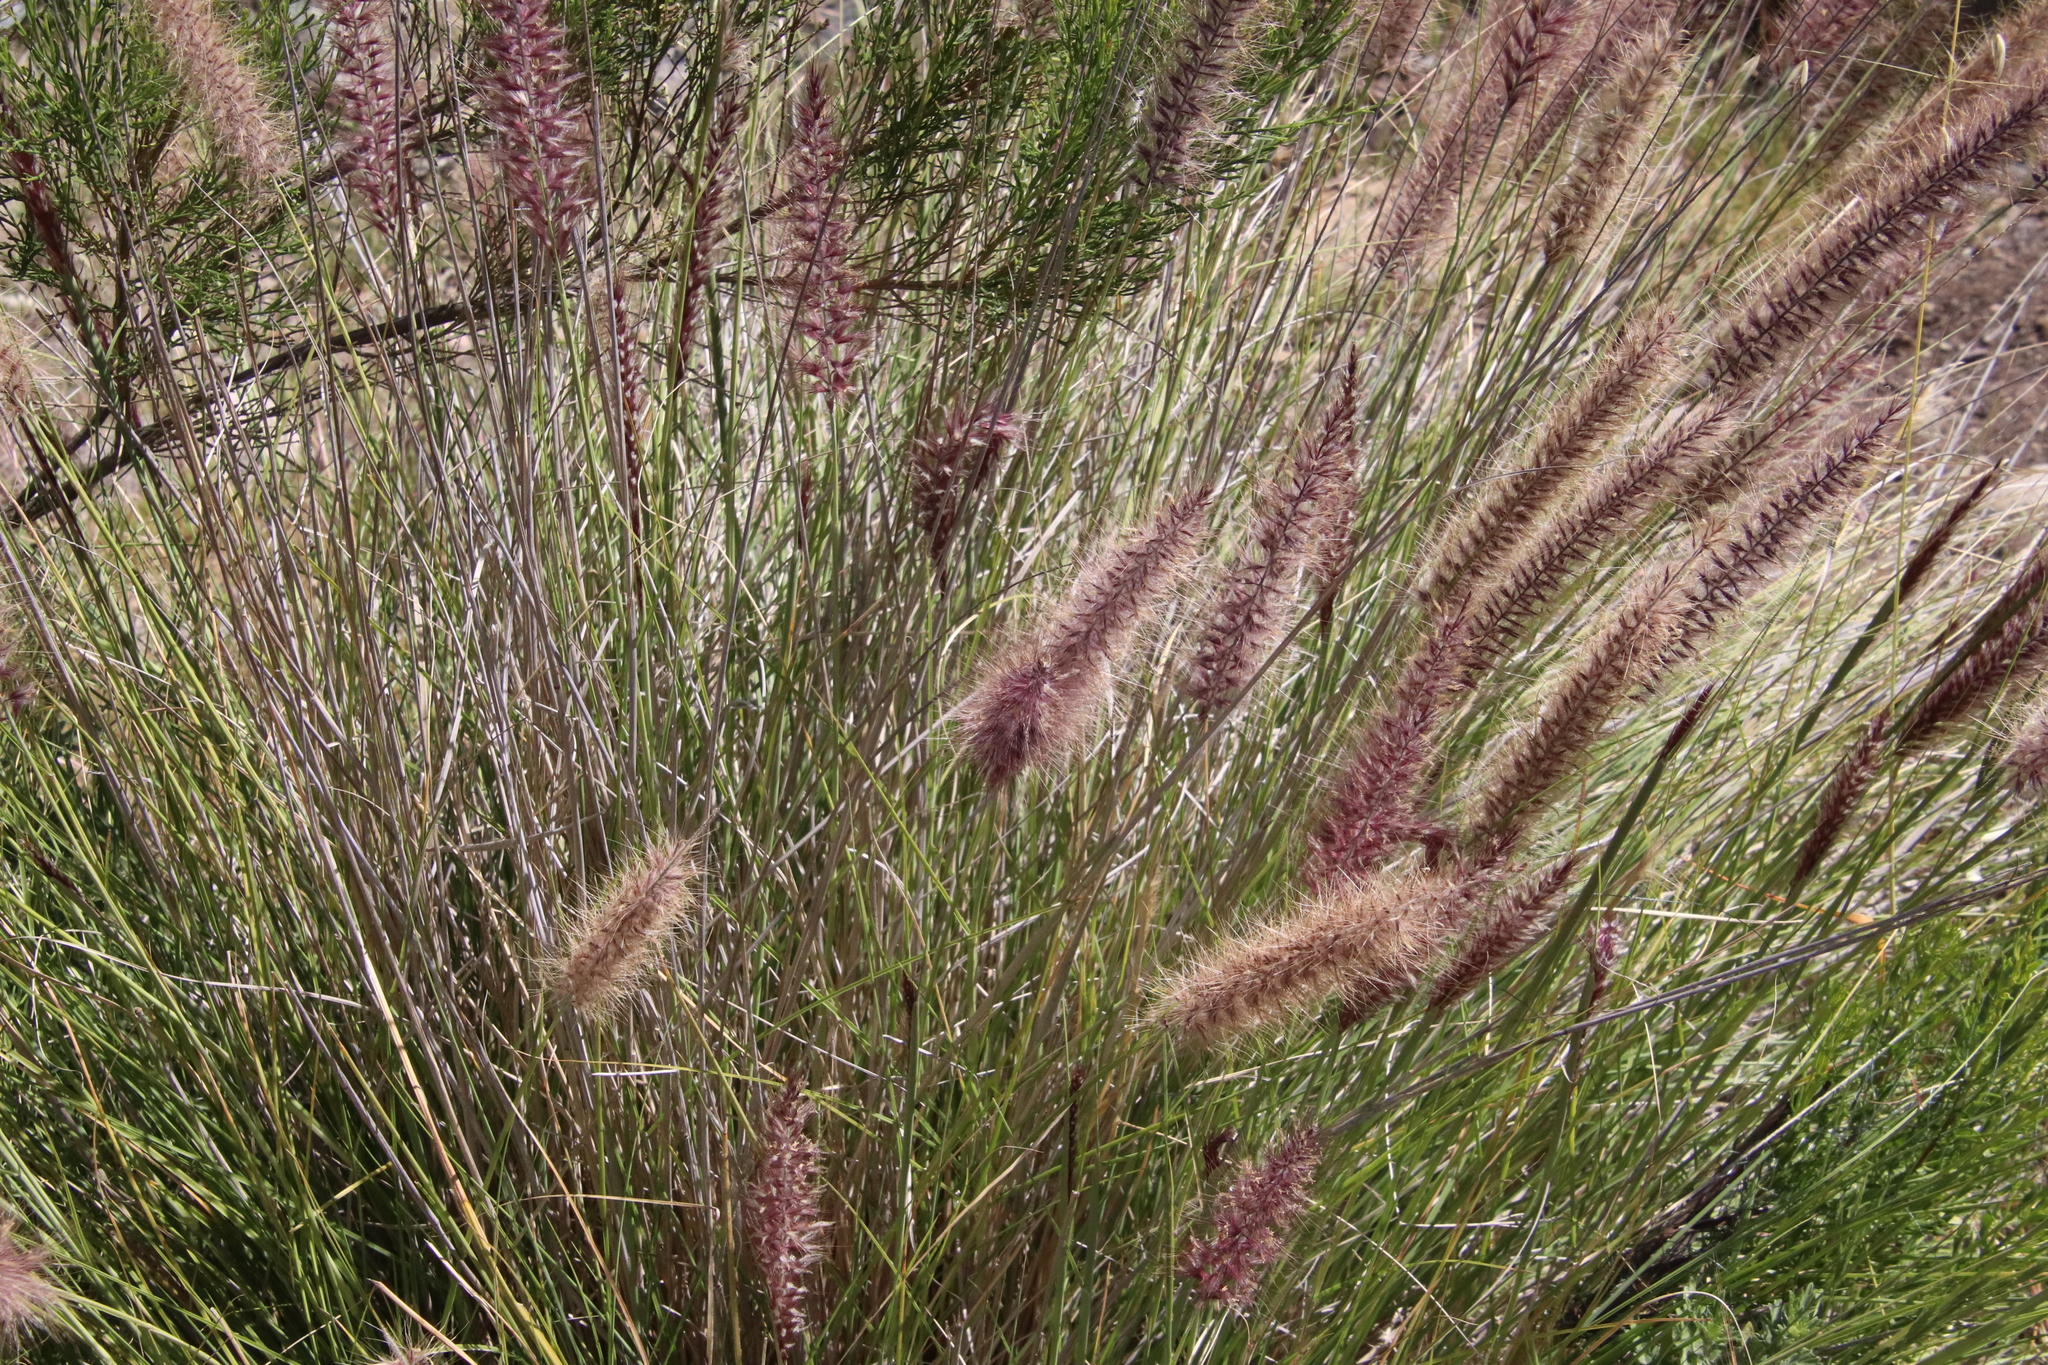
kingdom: Plantae
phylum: Tracheophyta
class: Liliopsida
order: Poales
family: Poaceae
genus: Cenchrus
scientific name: Cenchrus setaceus
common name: Crimson fountaingrass
